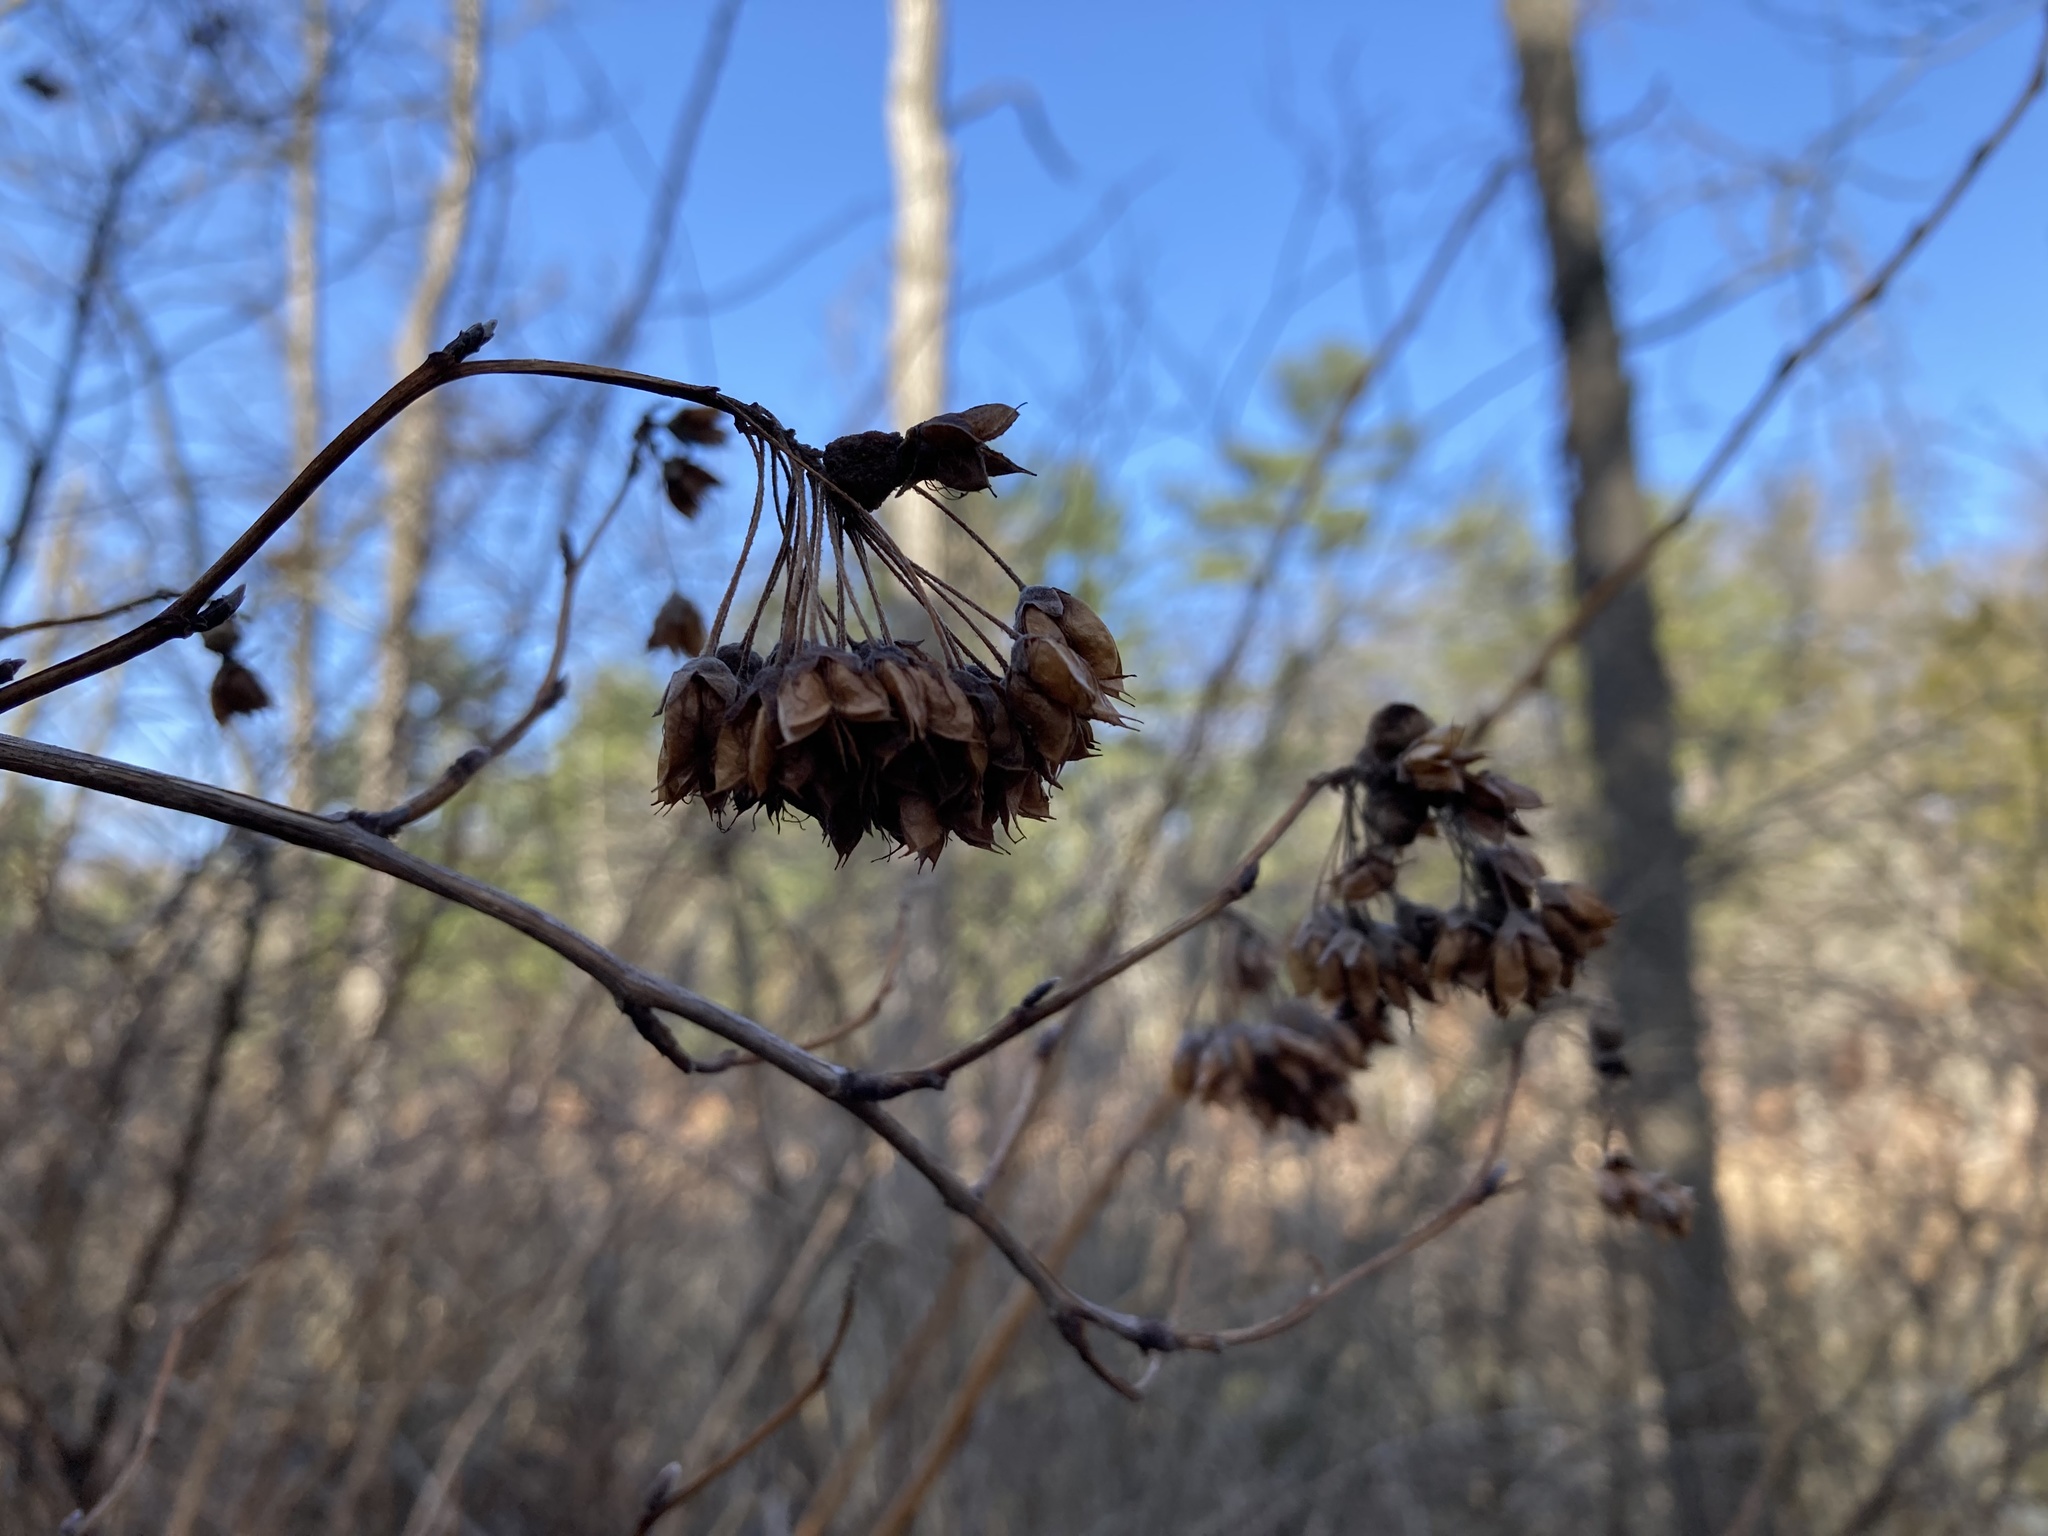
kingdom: Plantae
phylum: Tracheophyta
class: Magnoliopsida
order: Rosales
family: Rosaceae
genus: Physocarpus
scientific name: Physocarpus opulifolius
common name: Ninebark
